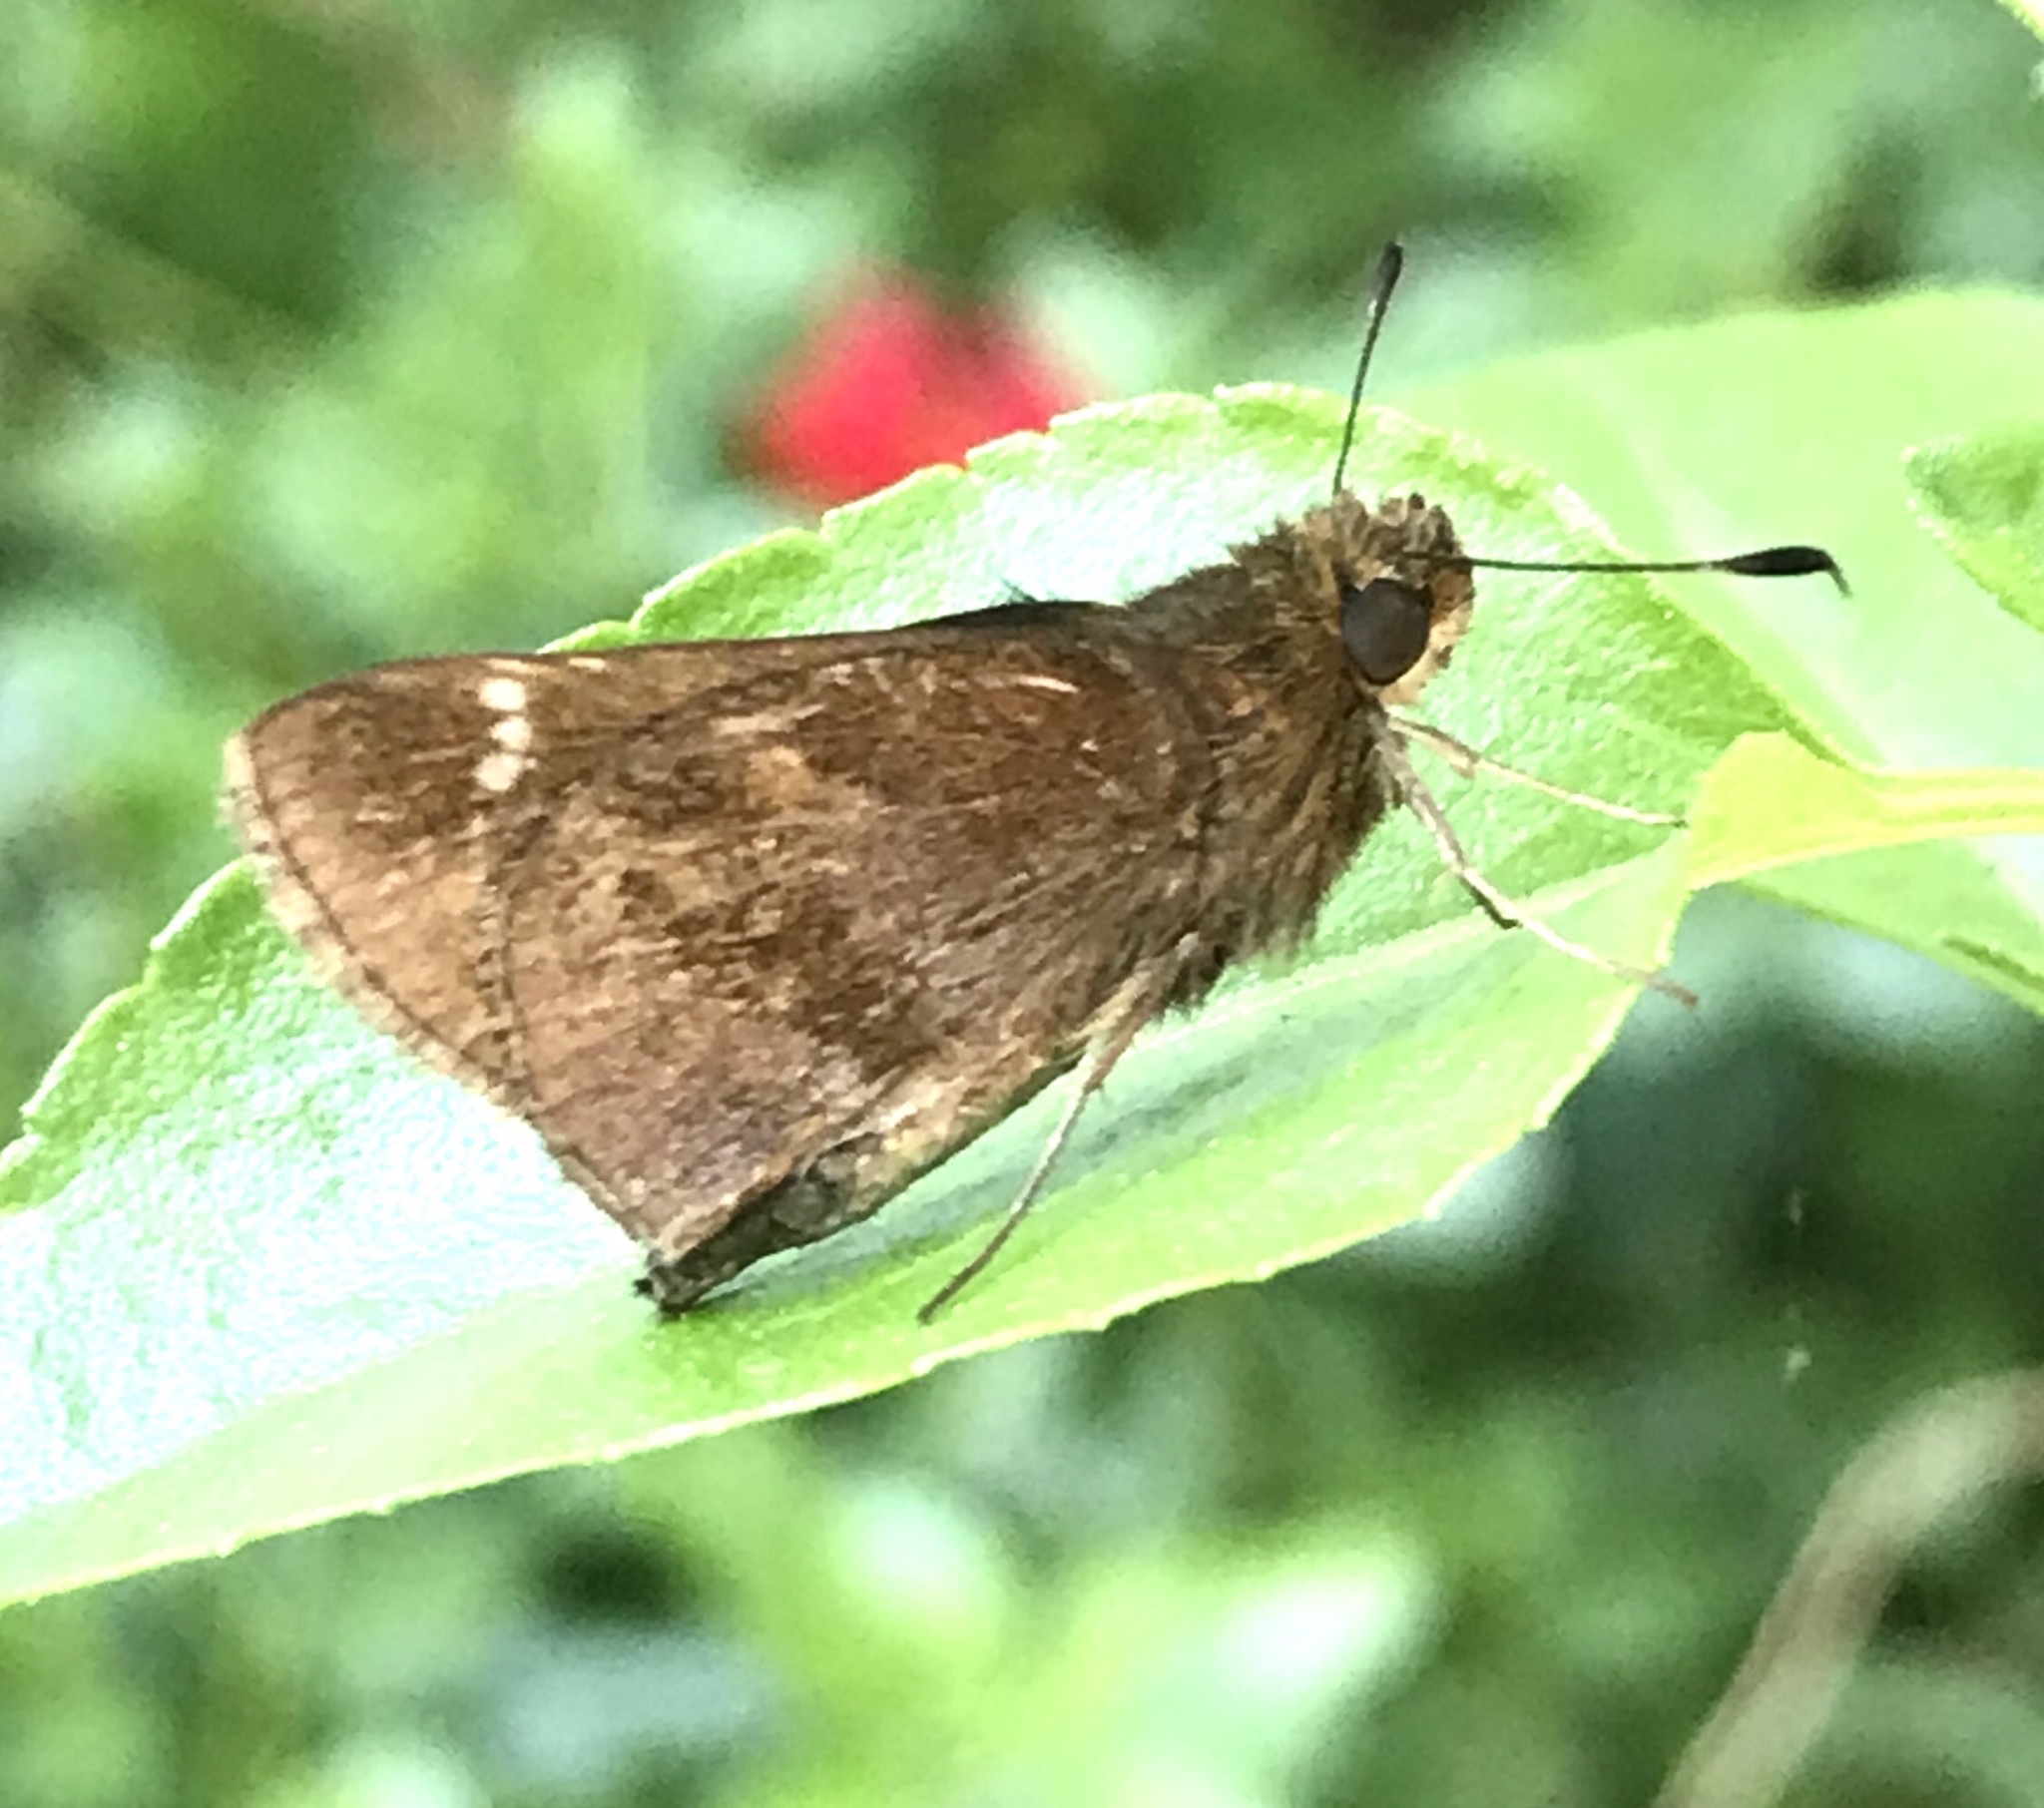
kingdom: Animalia
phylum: Arthropoda
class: Insecta
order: Lepidoptera
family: Hesperiidae
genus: Lerema
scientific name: Lerema accius
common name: Clouded skipper
